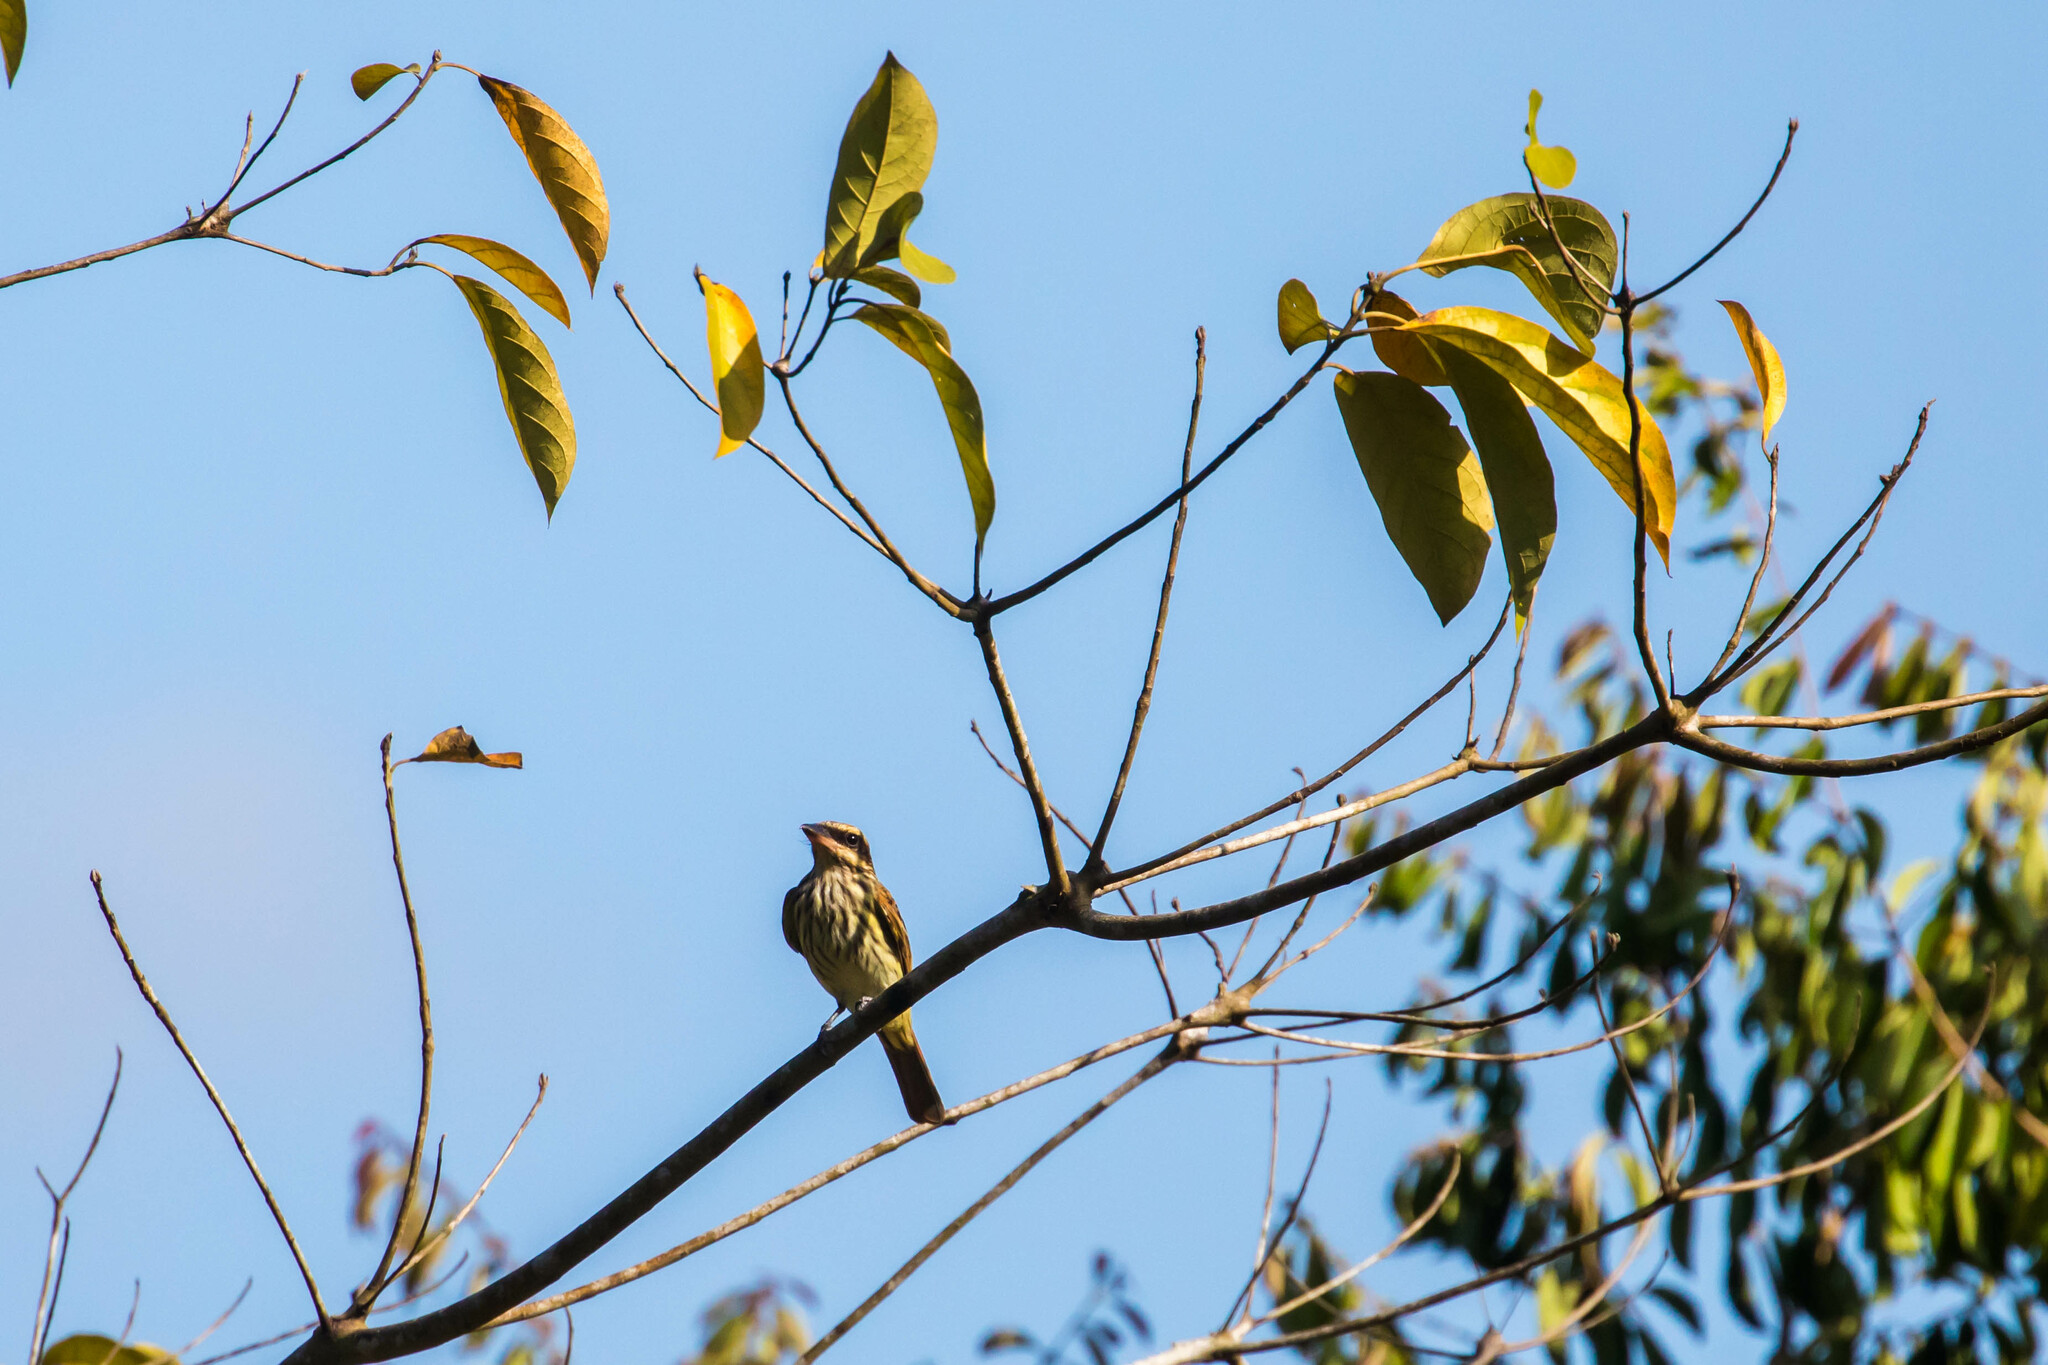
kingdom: Animalia
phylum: Chordata
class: Aves
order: Passeriformes
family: Tyrannidae
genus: Myiodynastes
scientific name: Myiodynastes maculatus
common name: Streaked flycatcher
